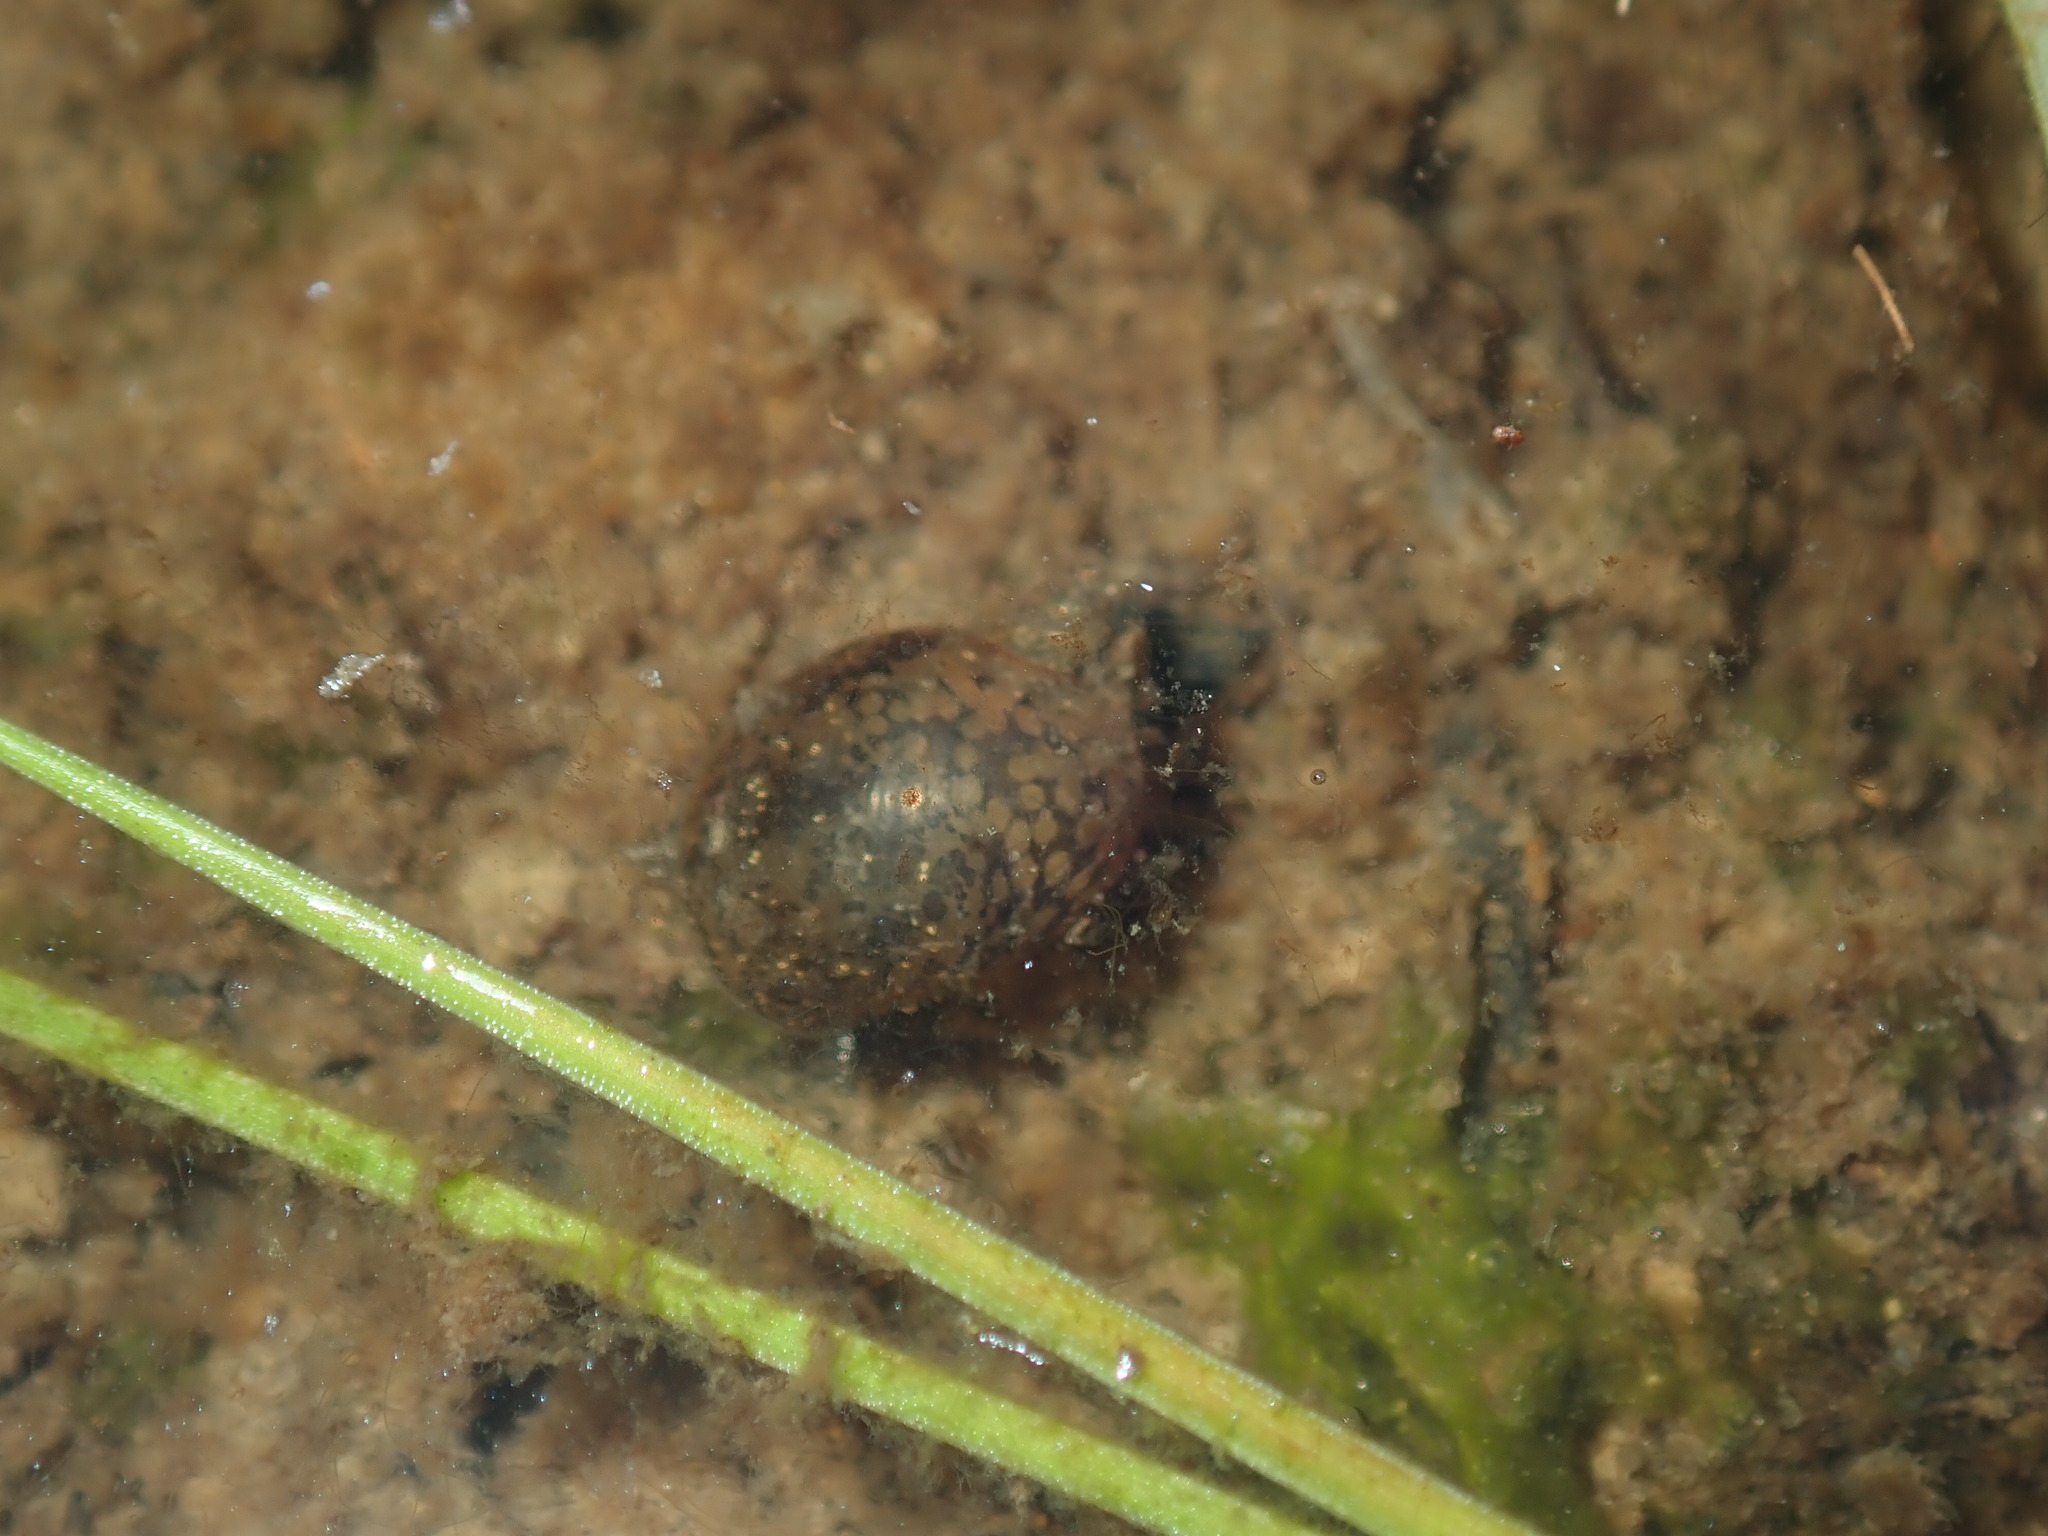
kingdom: Animalia
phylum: Mollusca
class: Gastropoda
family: Lymnaeidae
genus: Bullastra
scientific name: Bullastra lessoni
